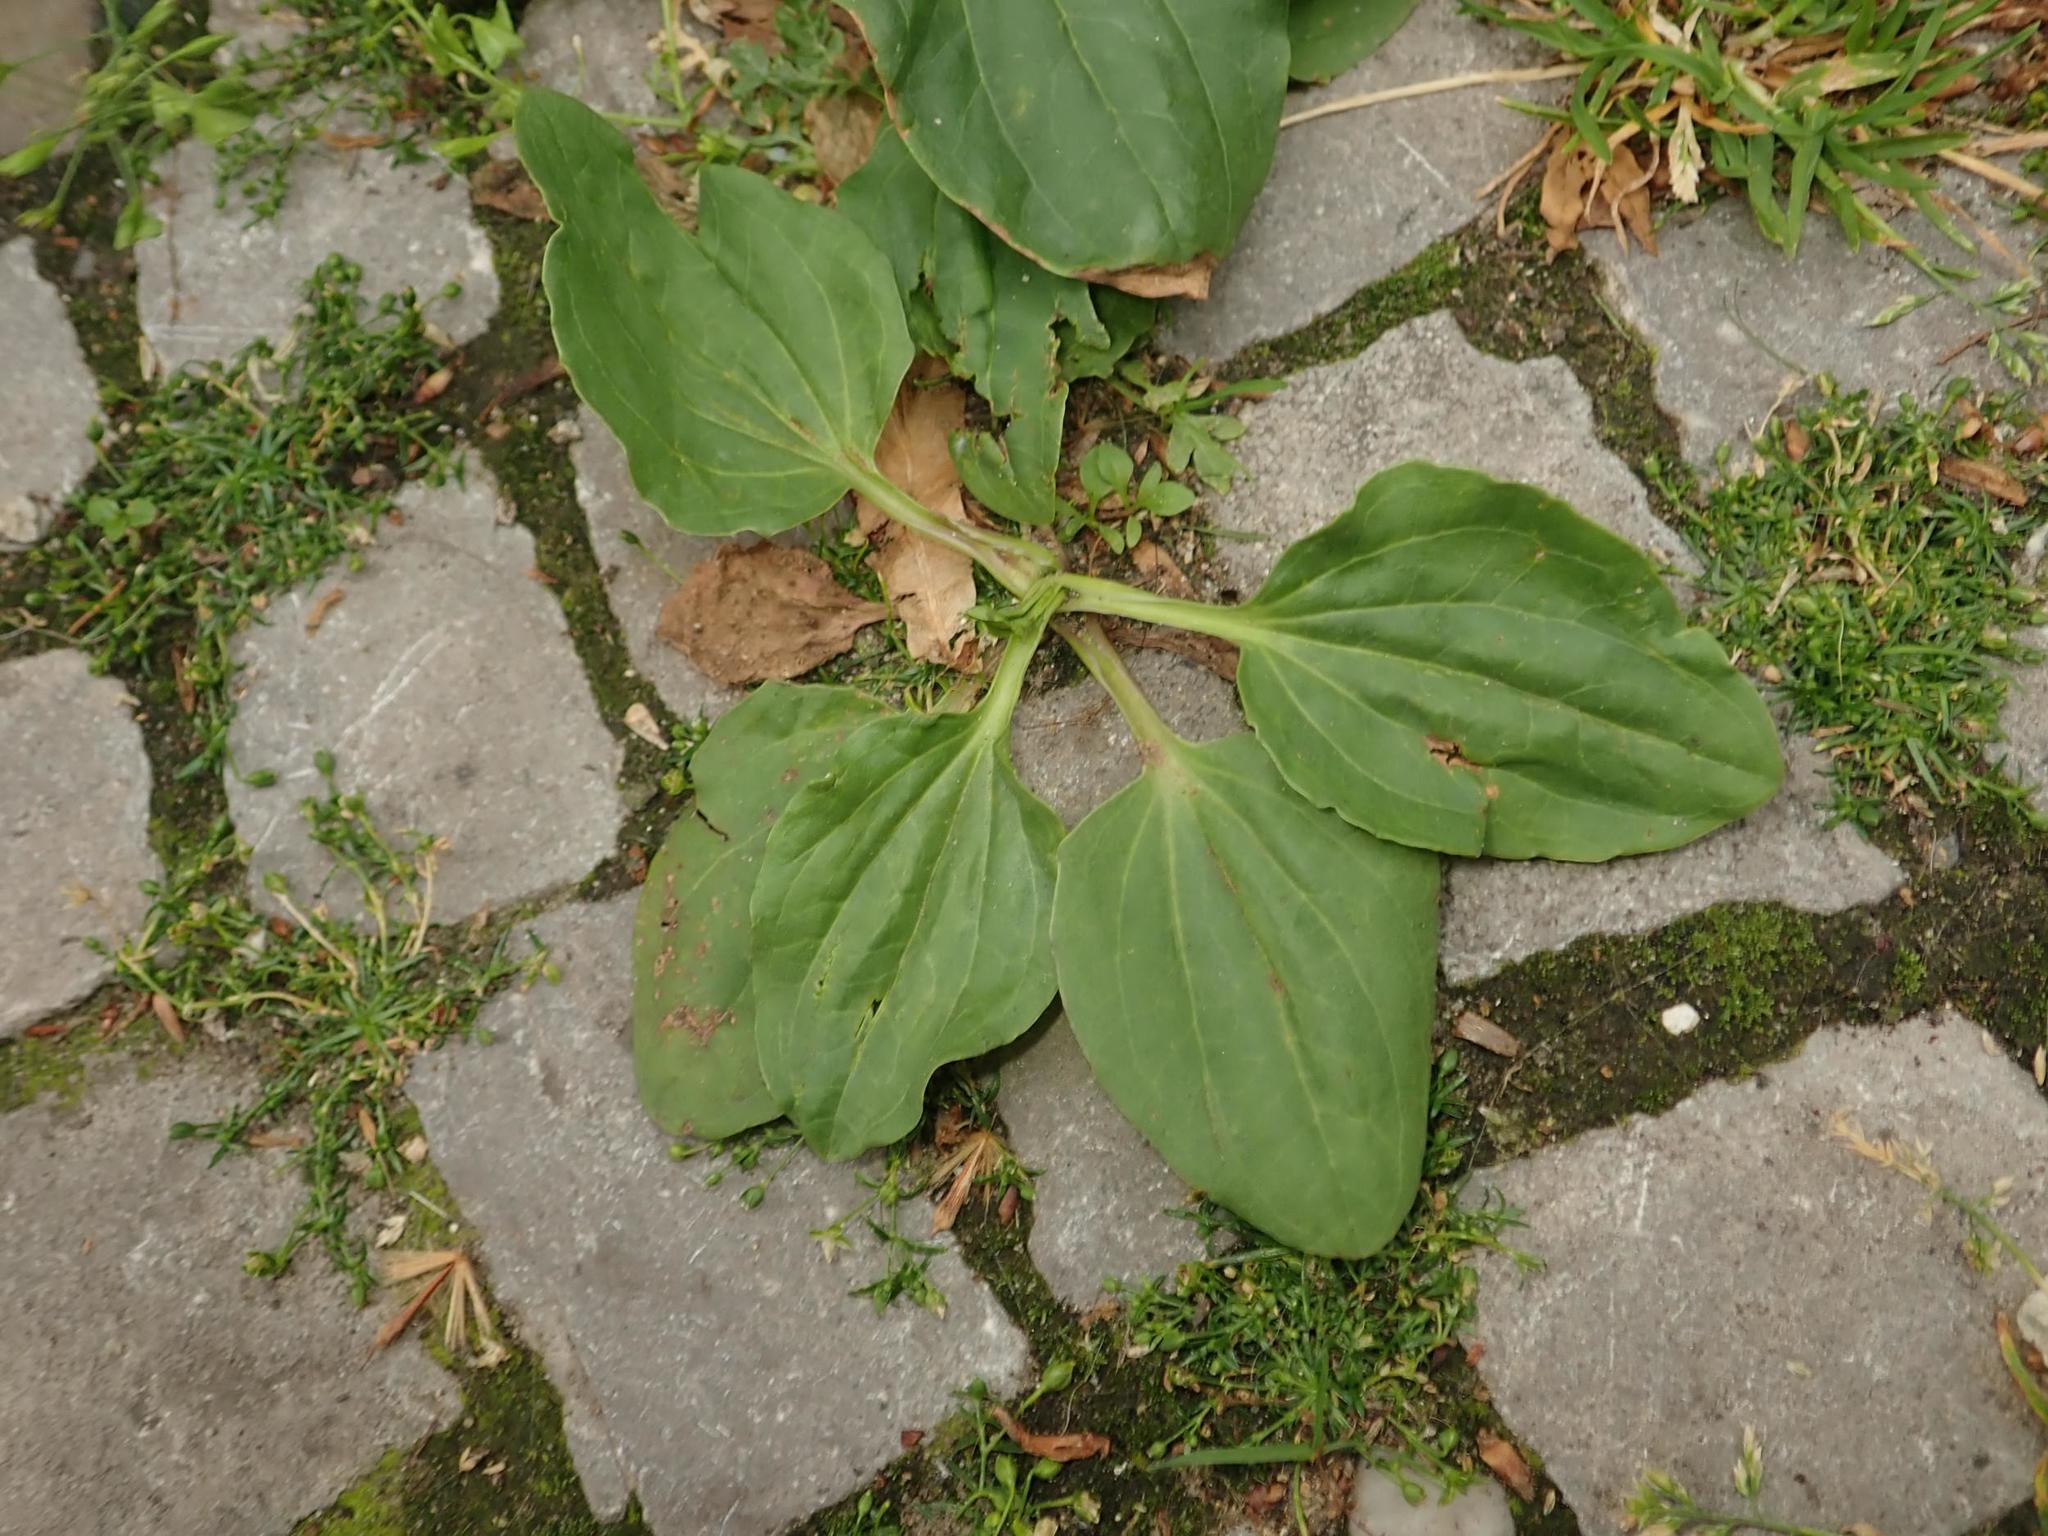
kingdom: Plantae
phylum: Tracheophyta
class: Magnoliopsida
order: Lamiales
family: Plantaginaceae
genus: Plantago
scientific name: Plantago major
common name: Common plantain
